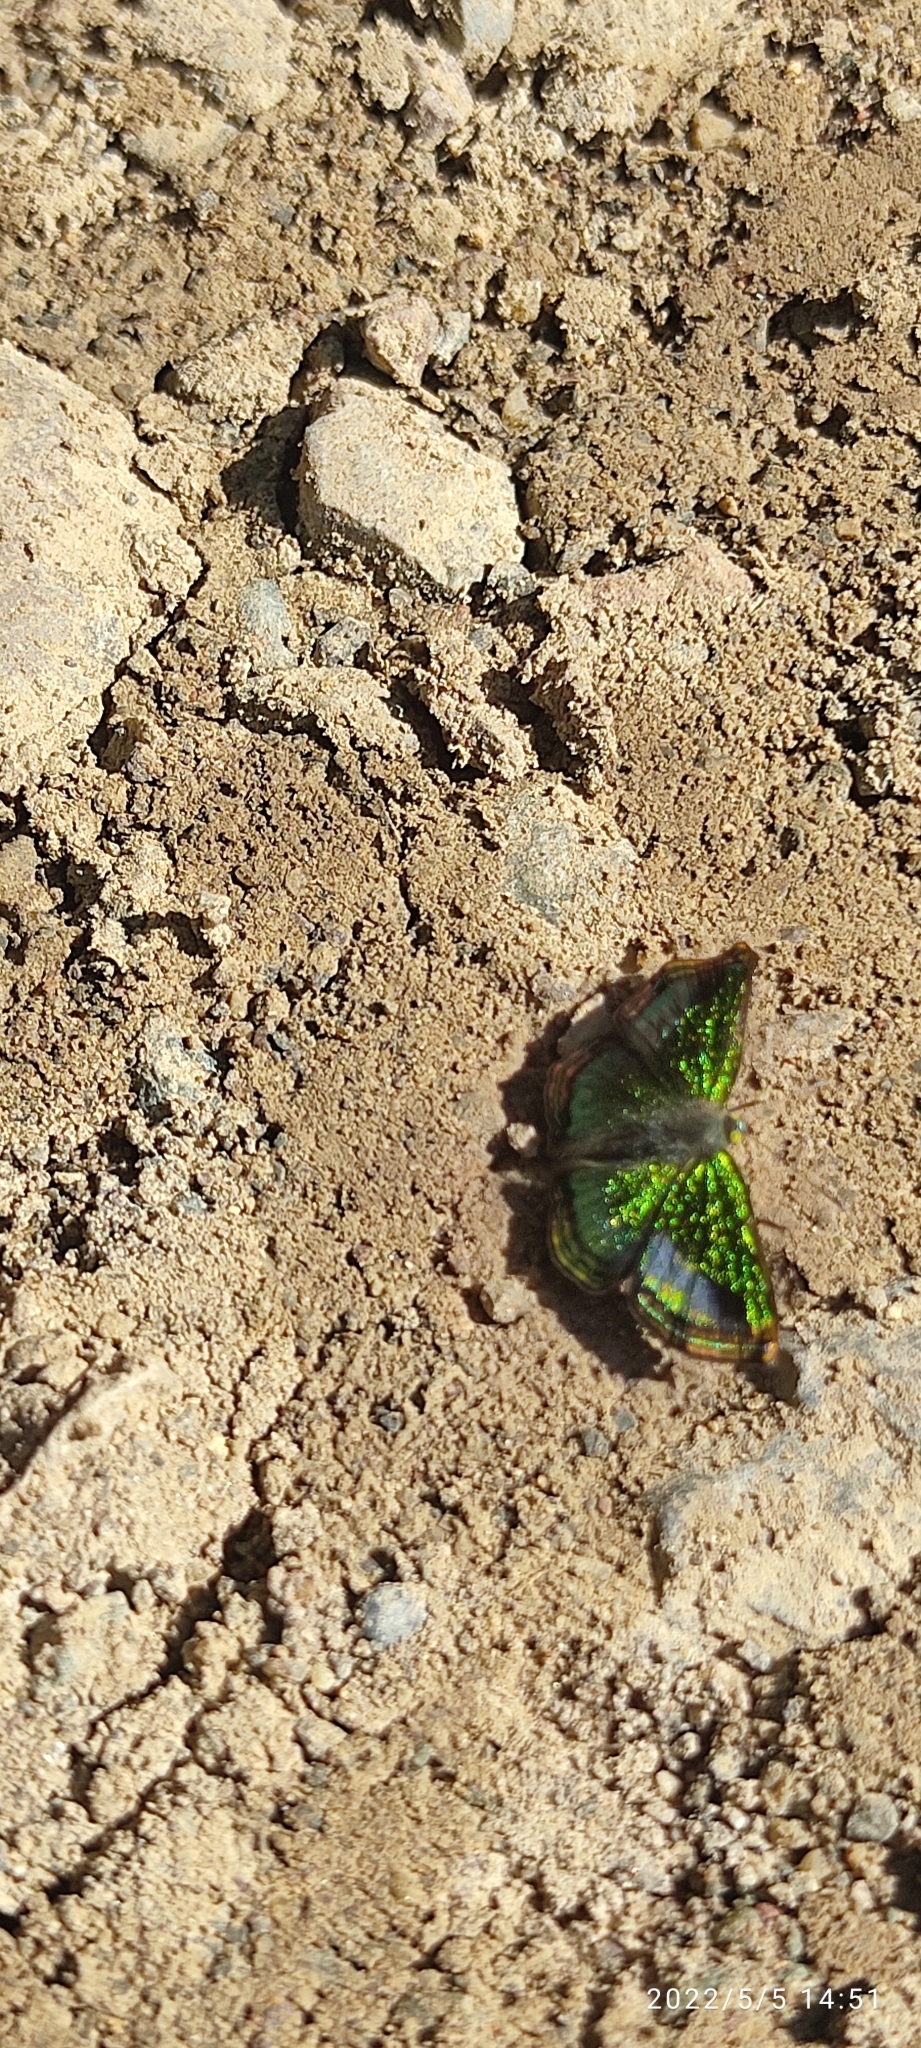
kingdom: Animalia
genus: Caria
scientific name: Caria sponsa
